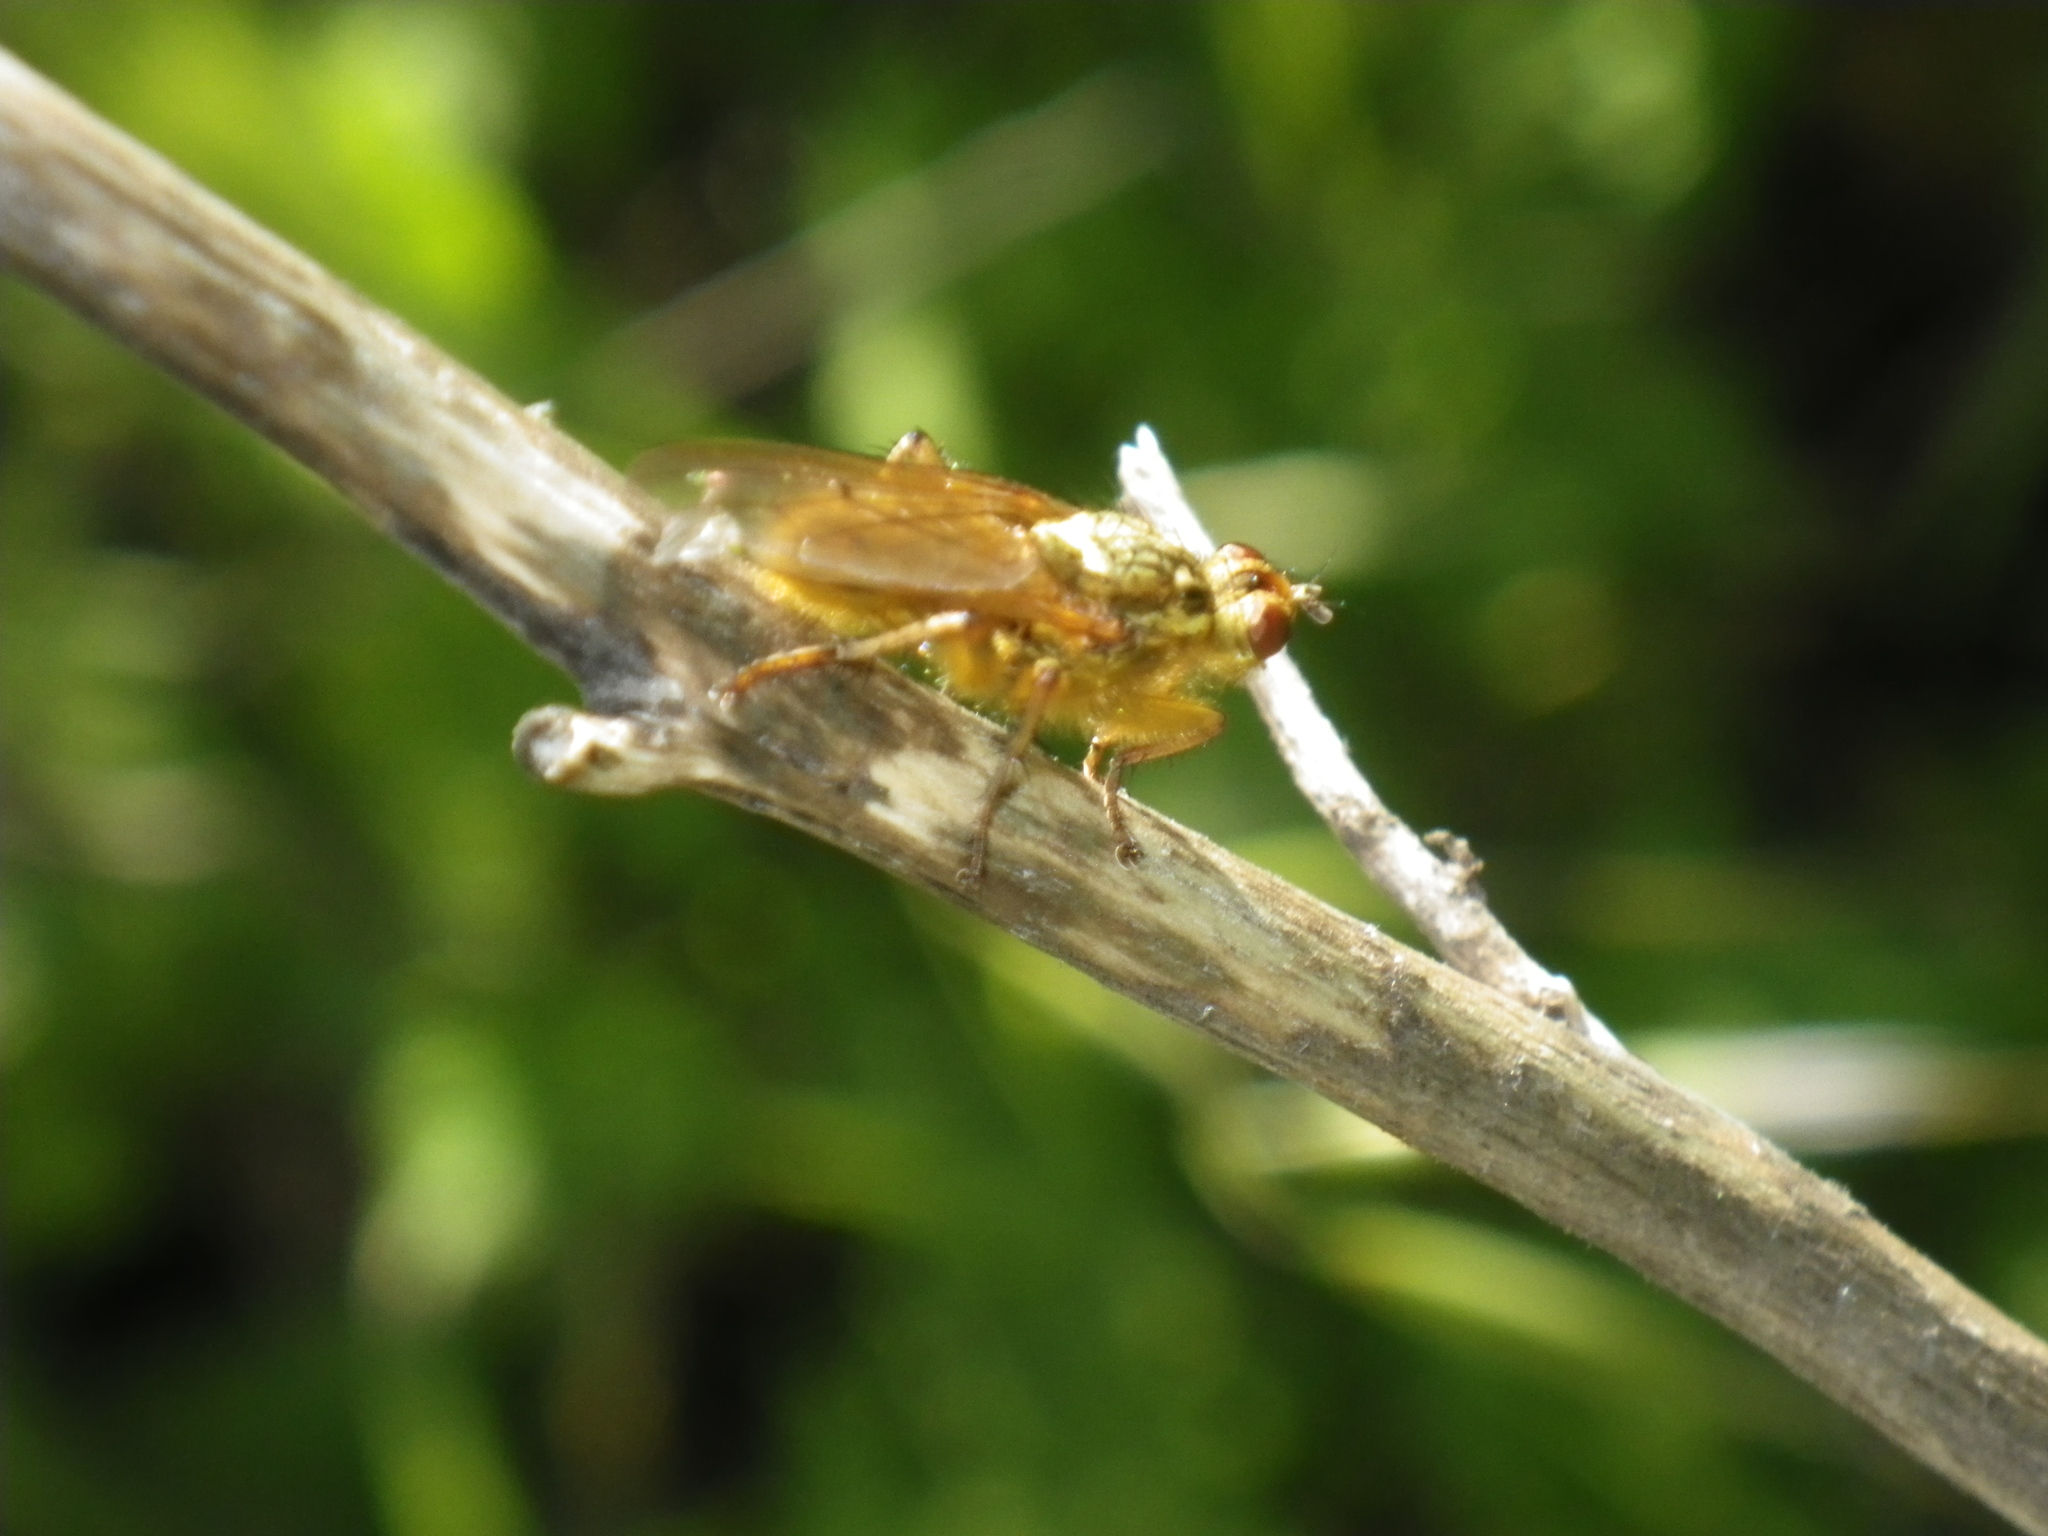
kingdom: Animalia
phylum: Arthropoda
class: Insecta
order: Diptera
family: Scathophagidae
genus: Scathophaga
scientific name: Scathophaga stercoraria
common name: Yellow dung fly
